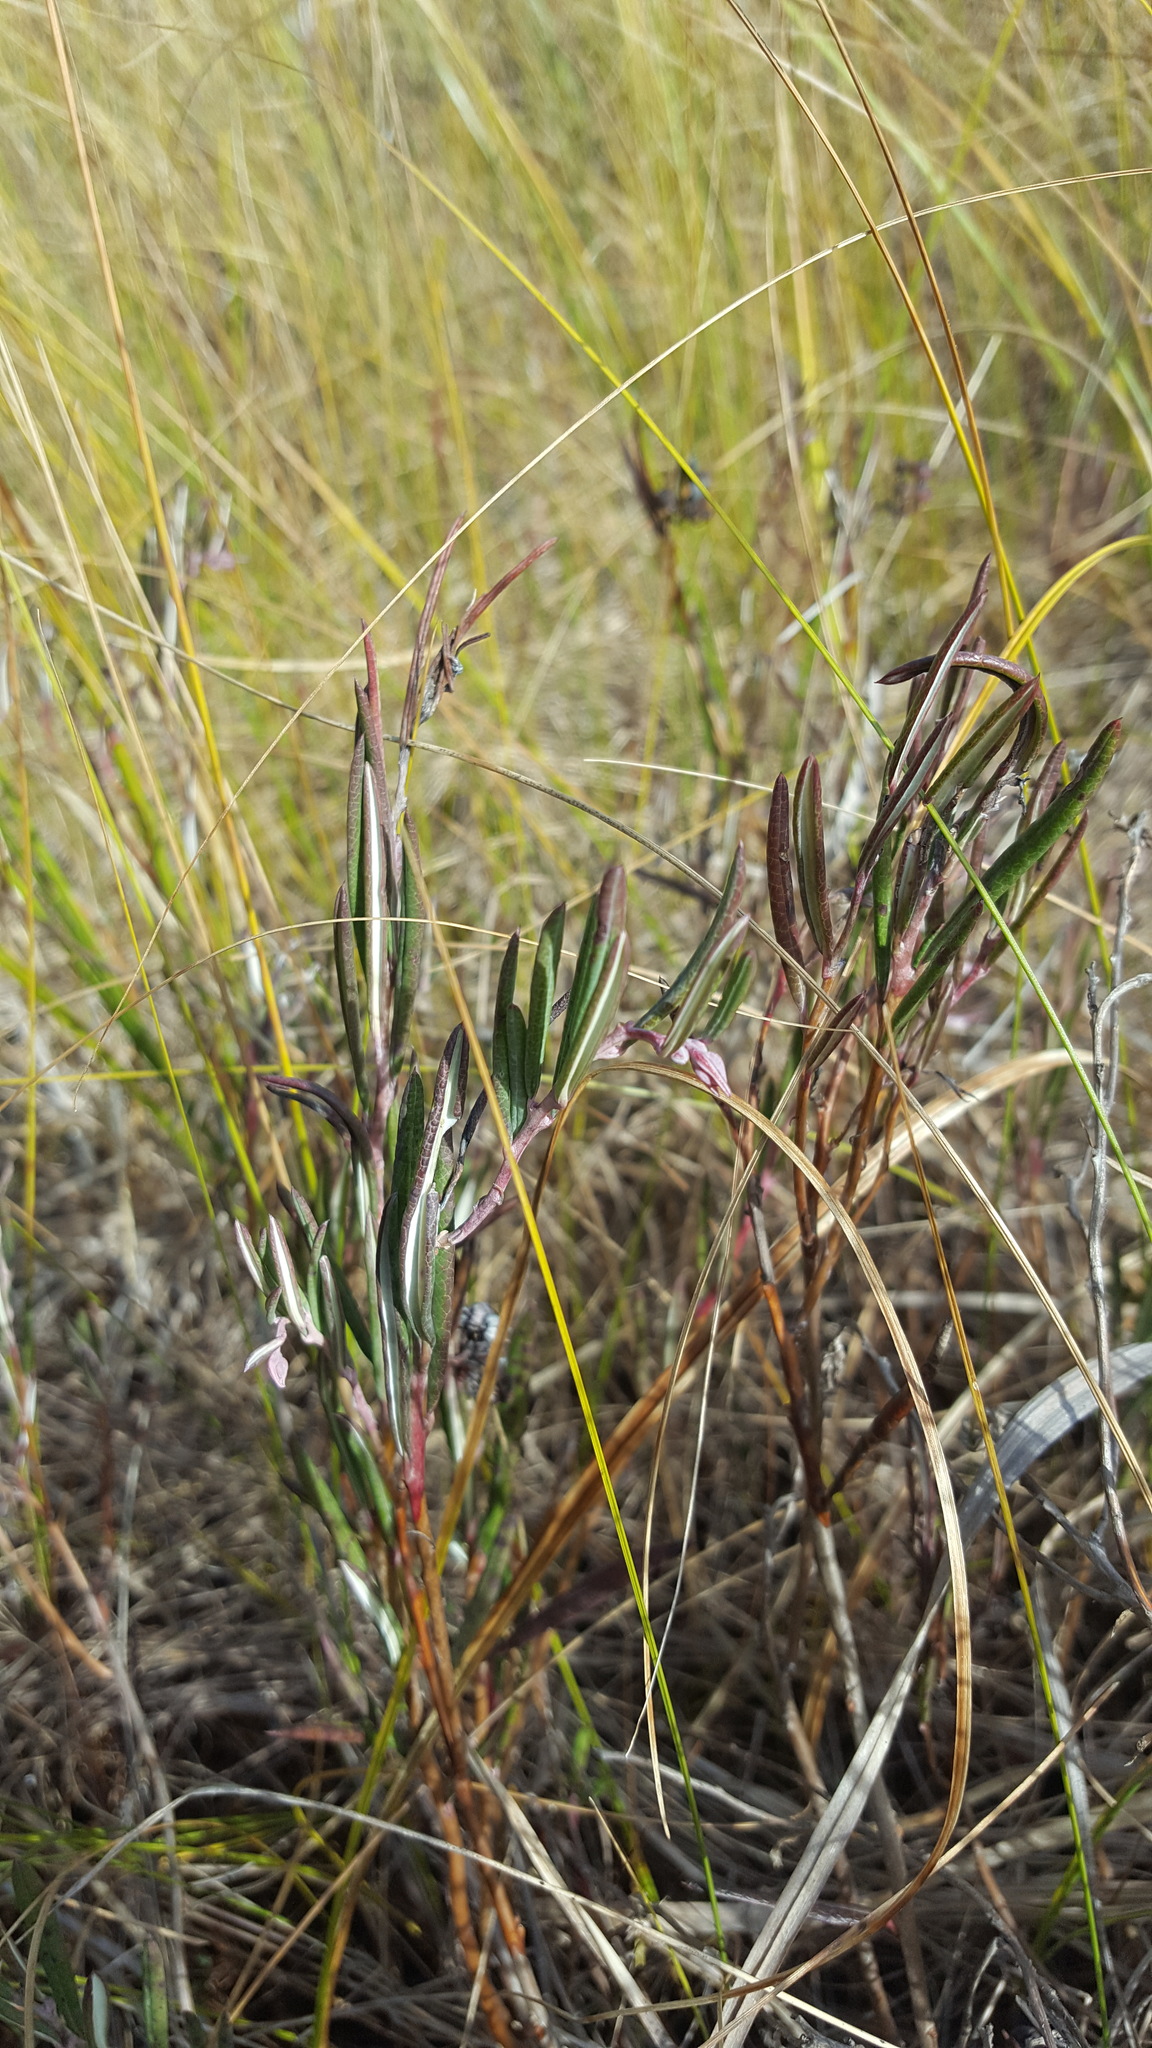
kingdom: Plantae
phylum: Tracheophyta
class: Magnoliopsida
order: Ericales
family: Ericaceae
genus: Andromeda
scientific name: Andromeda polifolia
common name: Bog-rosemary
